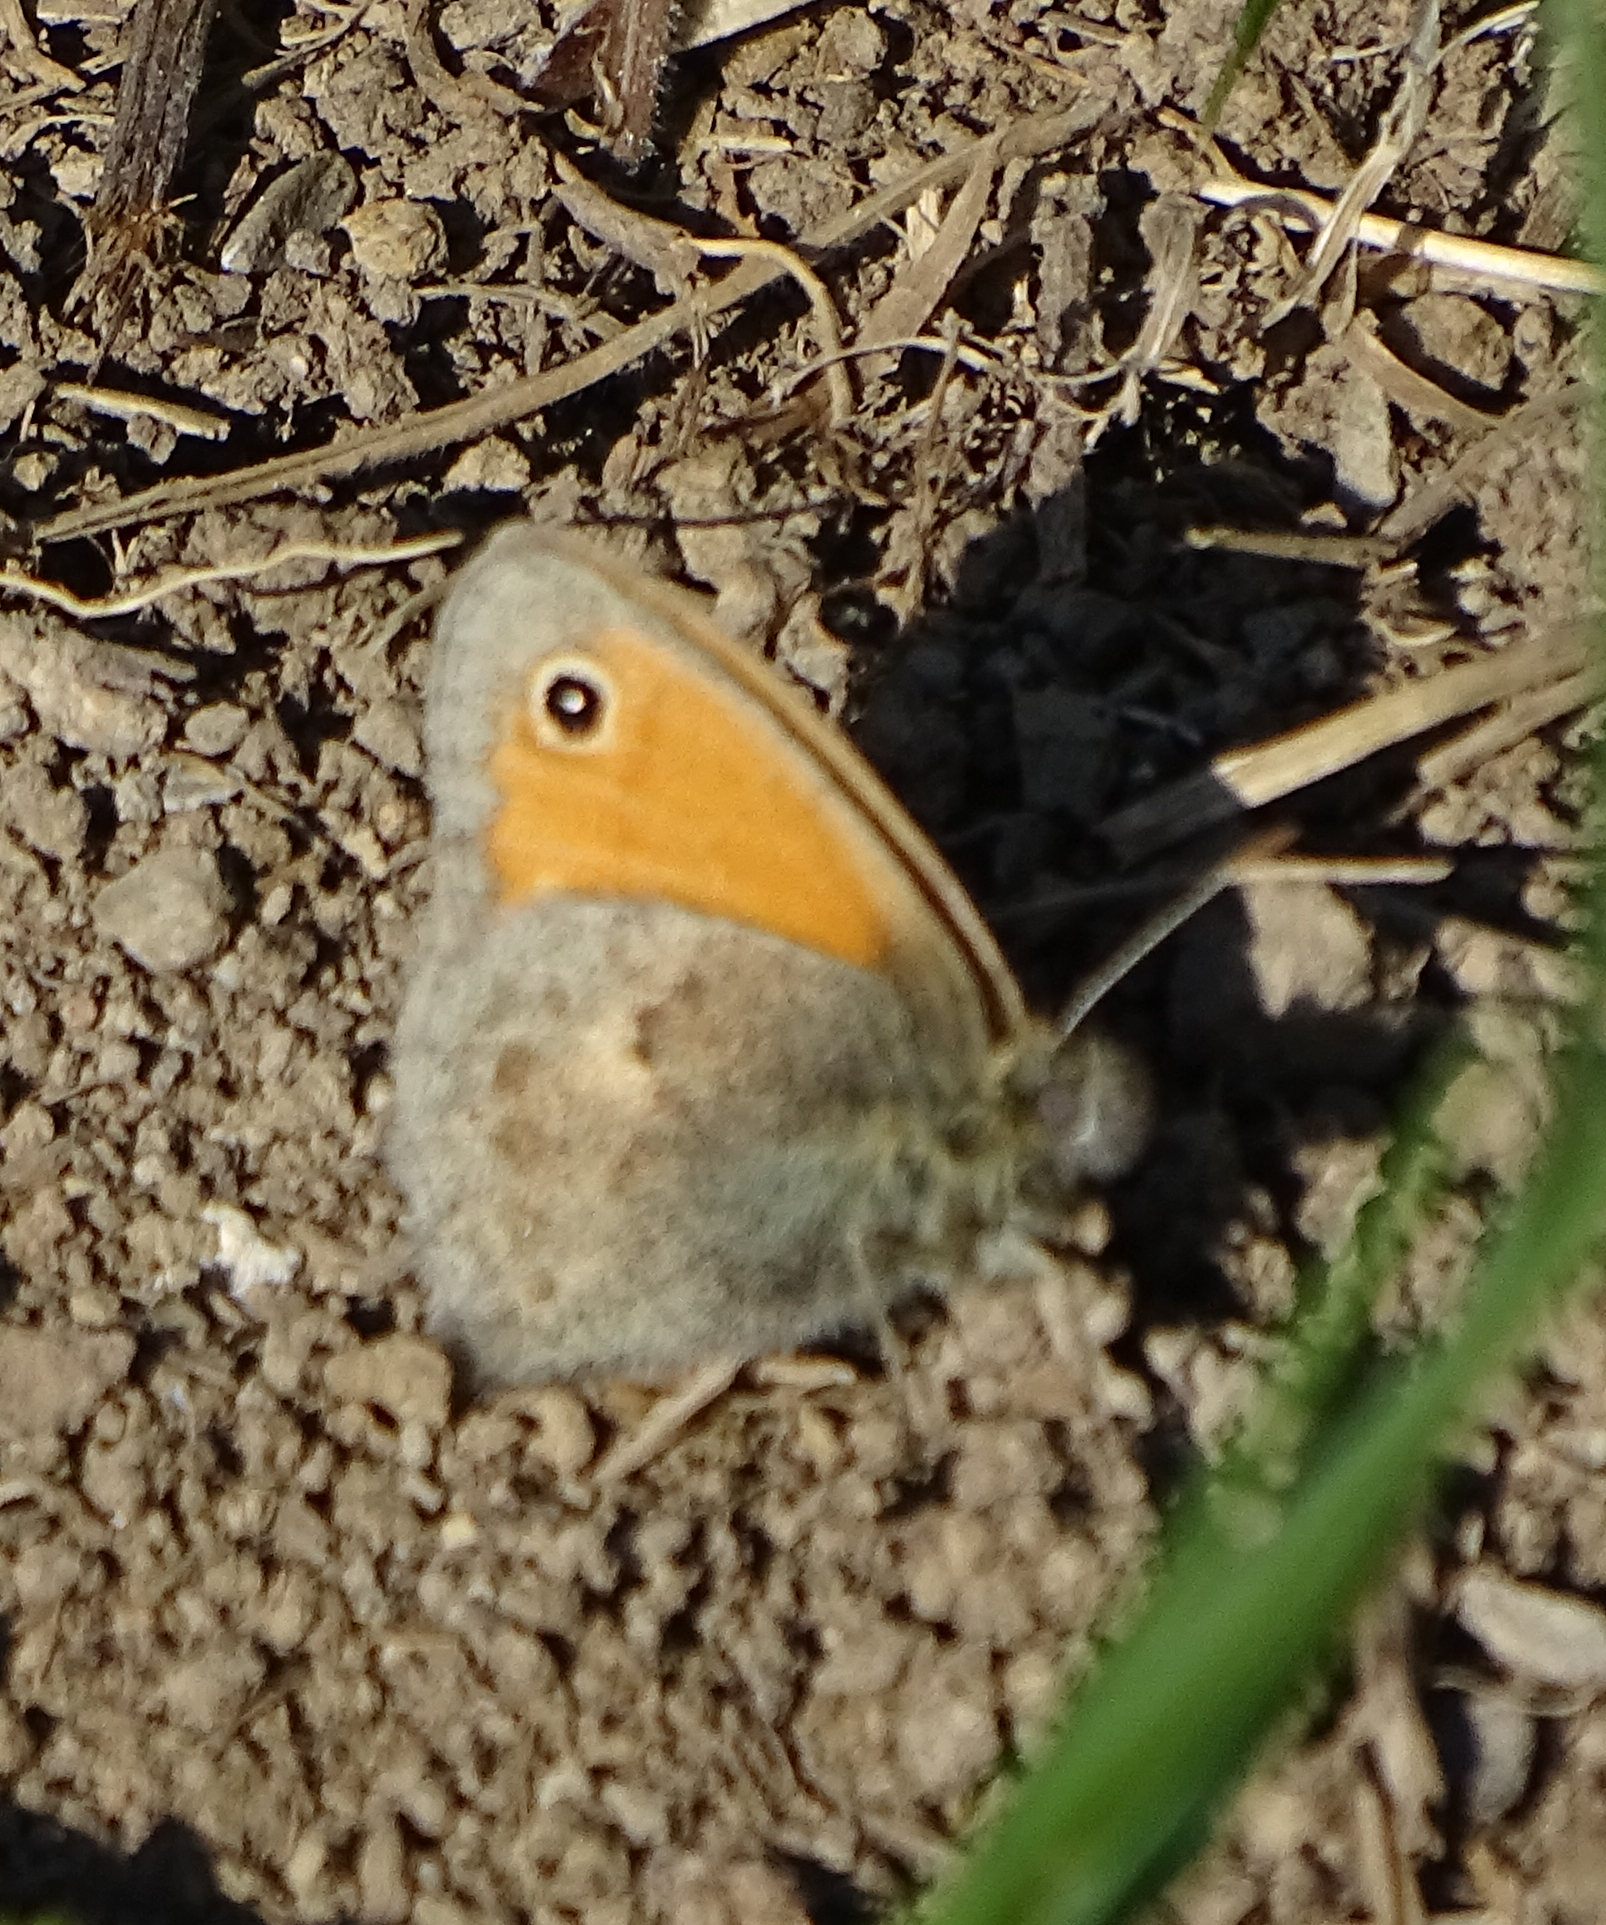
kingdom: Animalia
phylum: Arthropoda
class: Insecta
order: Lepidoptera
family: Nymphalidae
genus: Coenonympha
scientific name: Coenonympha pamphilus
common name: Small heath
